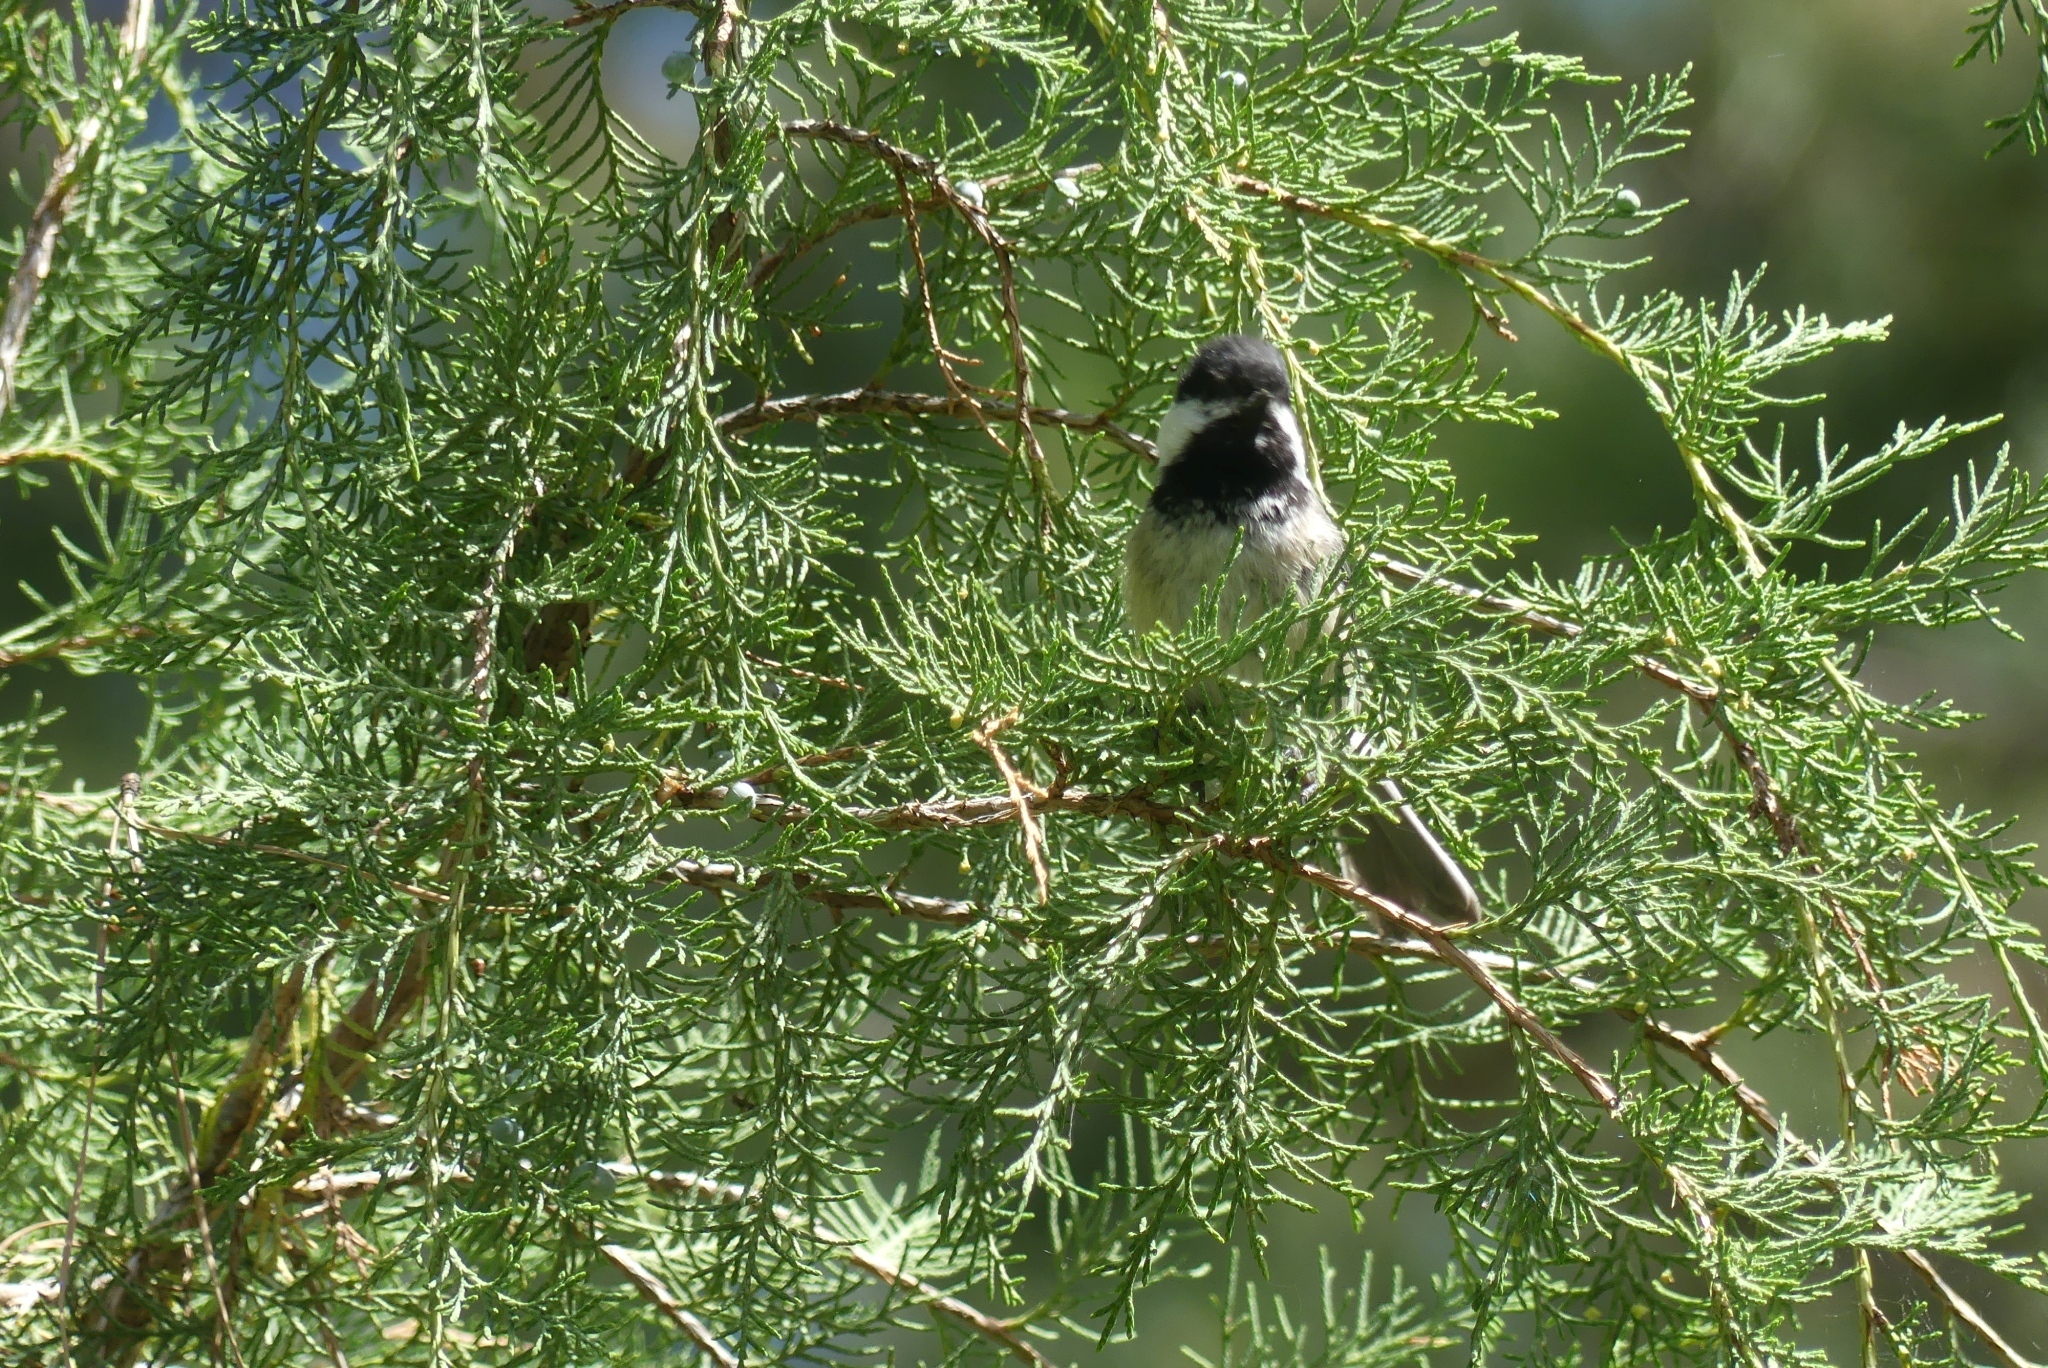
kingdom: Animalia
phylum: Chordata
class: Aves
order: Passeriformes
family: Paridae
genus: Poecile
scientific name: Poecile atricapillus
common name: Black-capped chickadee
